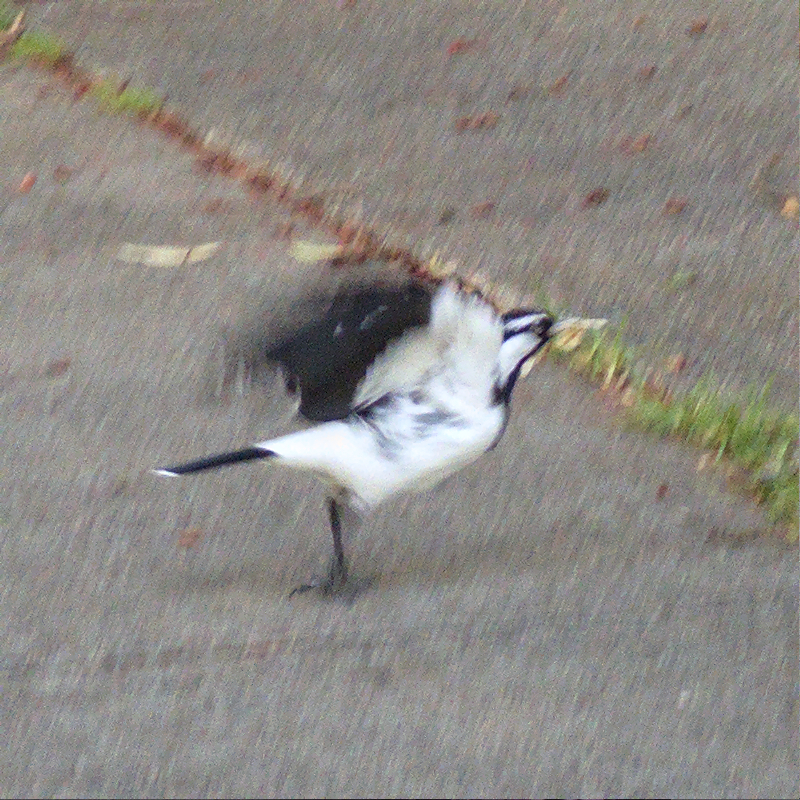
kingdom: Animalia
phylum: Chordata
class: Aves
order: Passeriformes
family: Monarchidae
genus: Grallina
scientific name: Grallina cyanoleuca
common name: Magpie-lark
